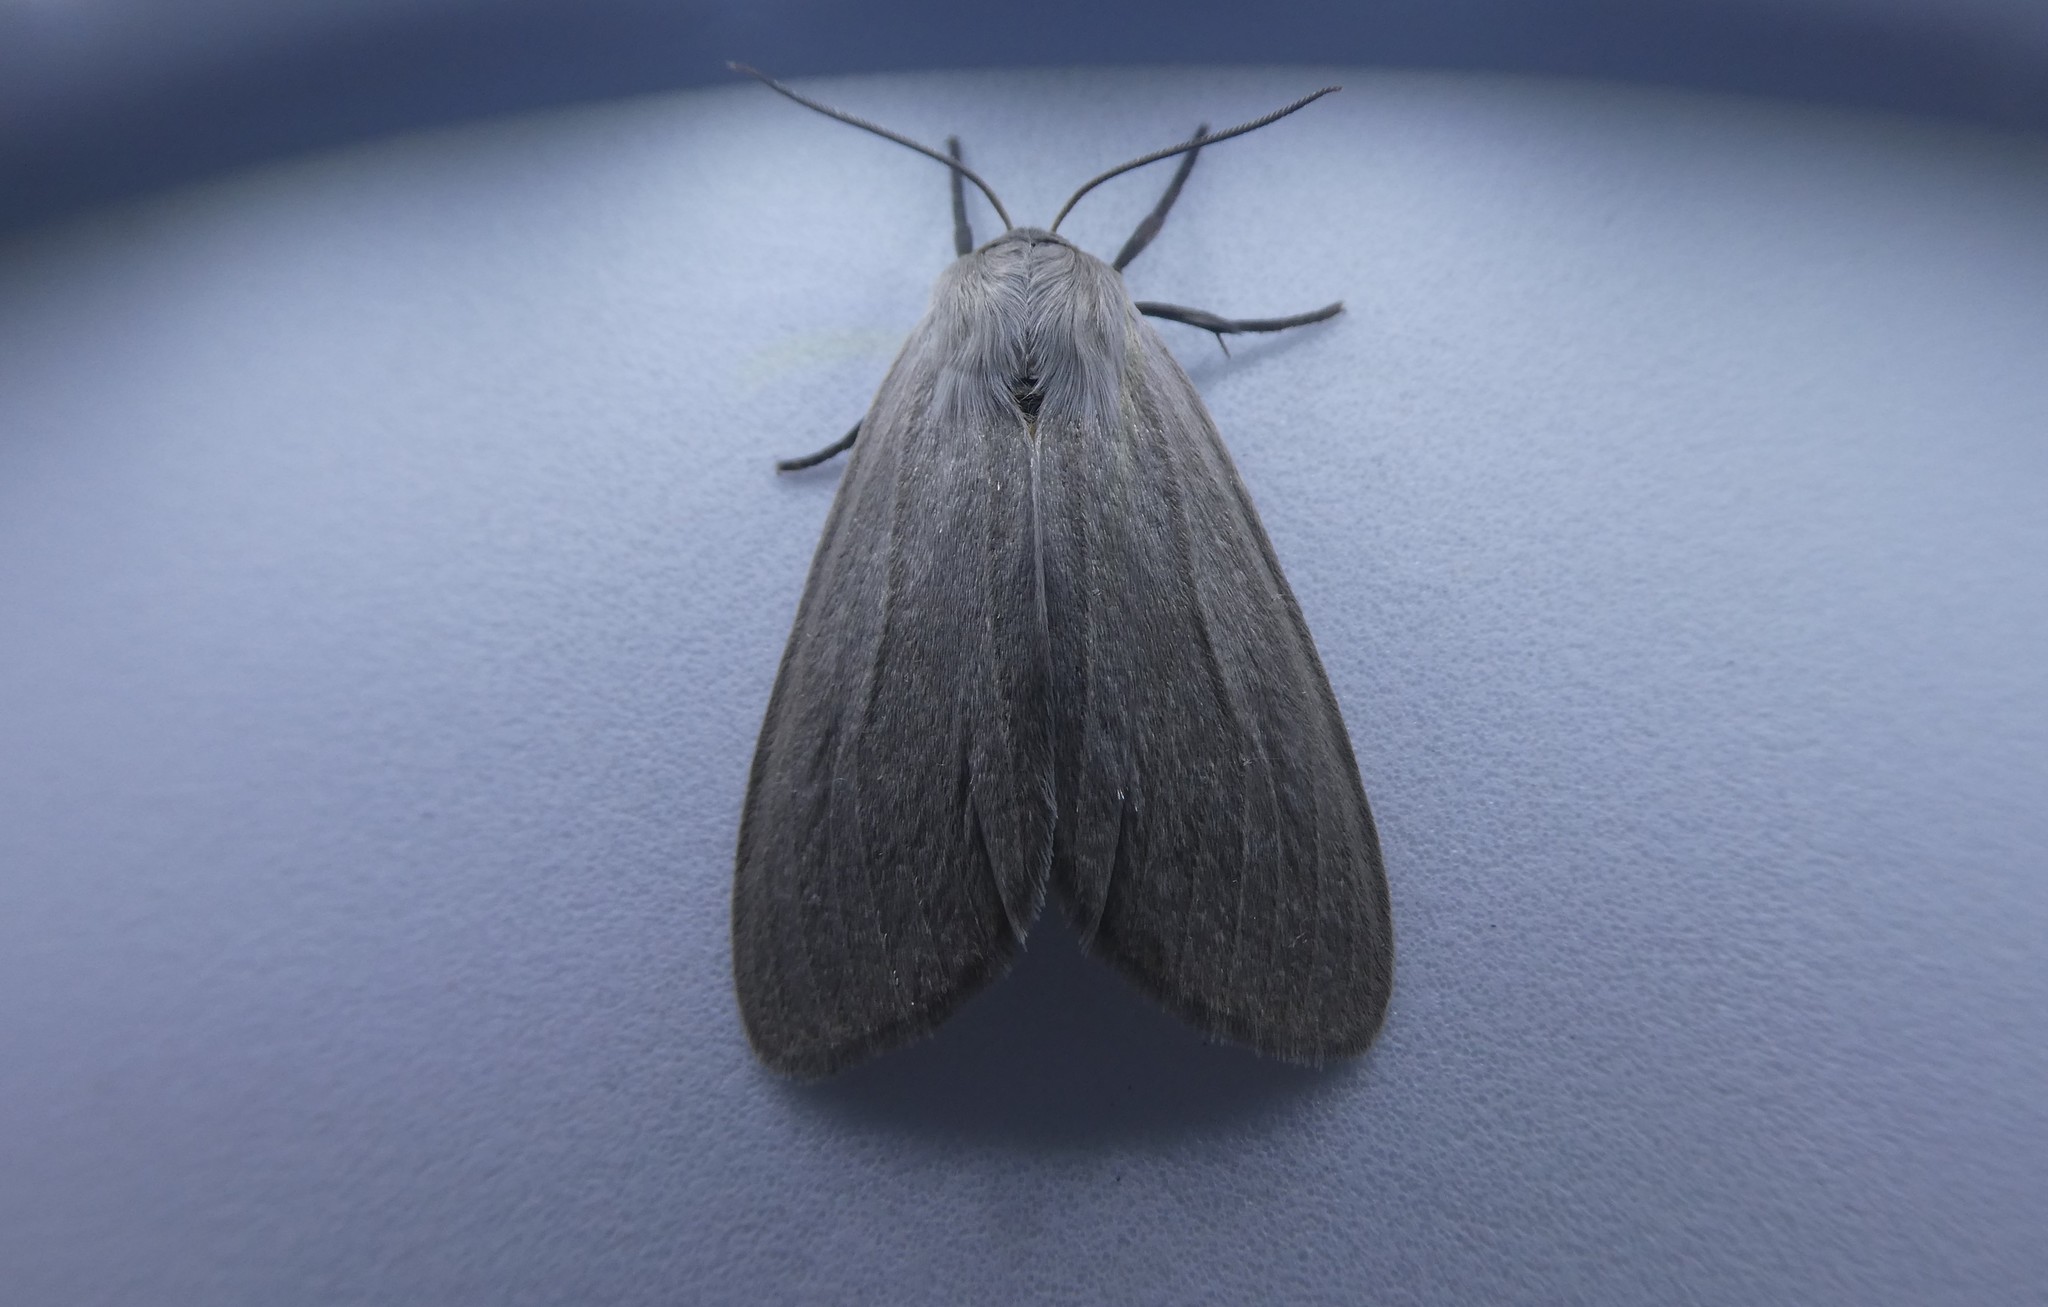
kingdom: Animalia
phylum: Arthropoda
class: Insecta
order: Lepidoptera
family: Erebidae
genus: Euchaetes
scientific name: Euchaetes egle
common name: Milkweed tussock moth
